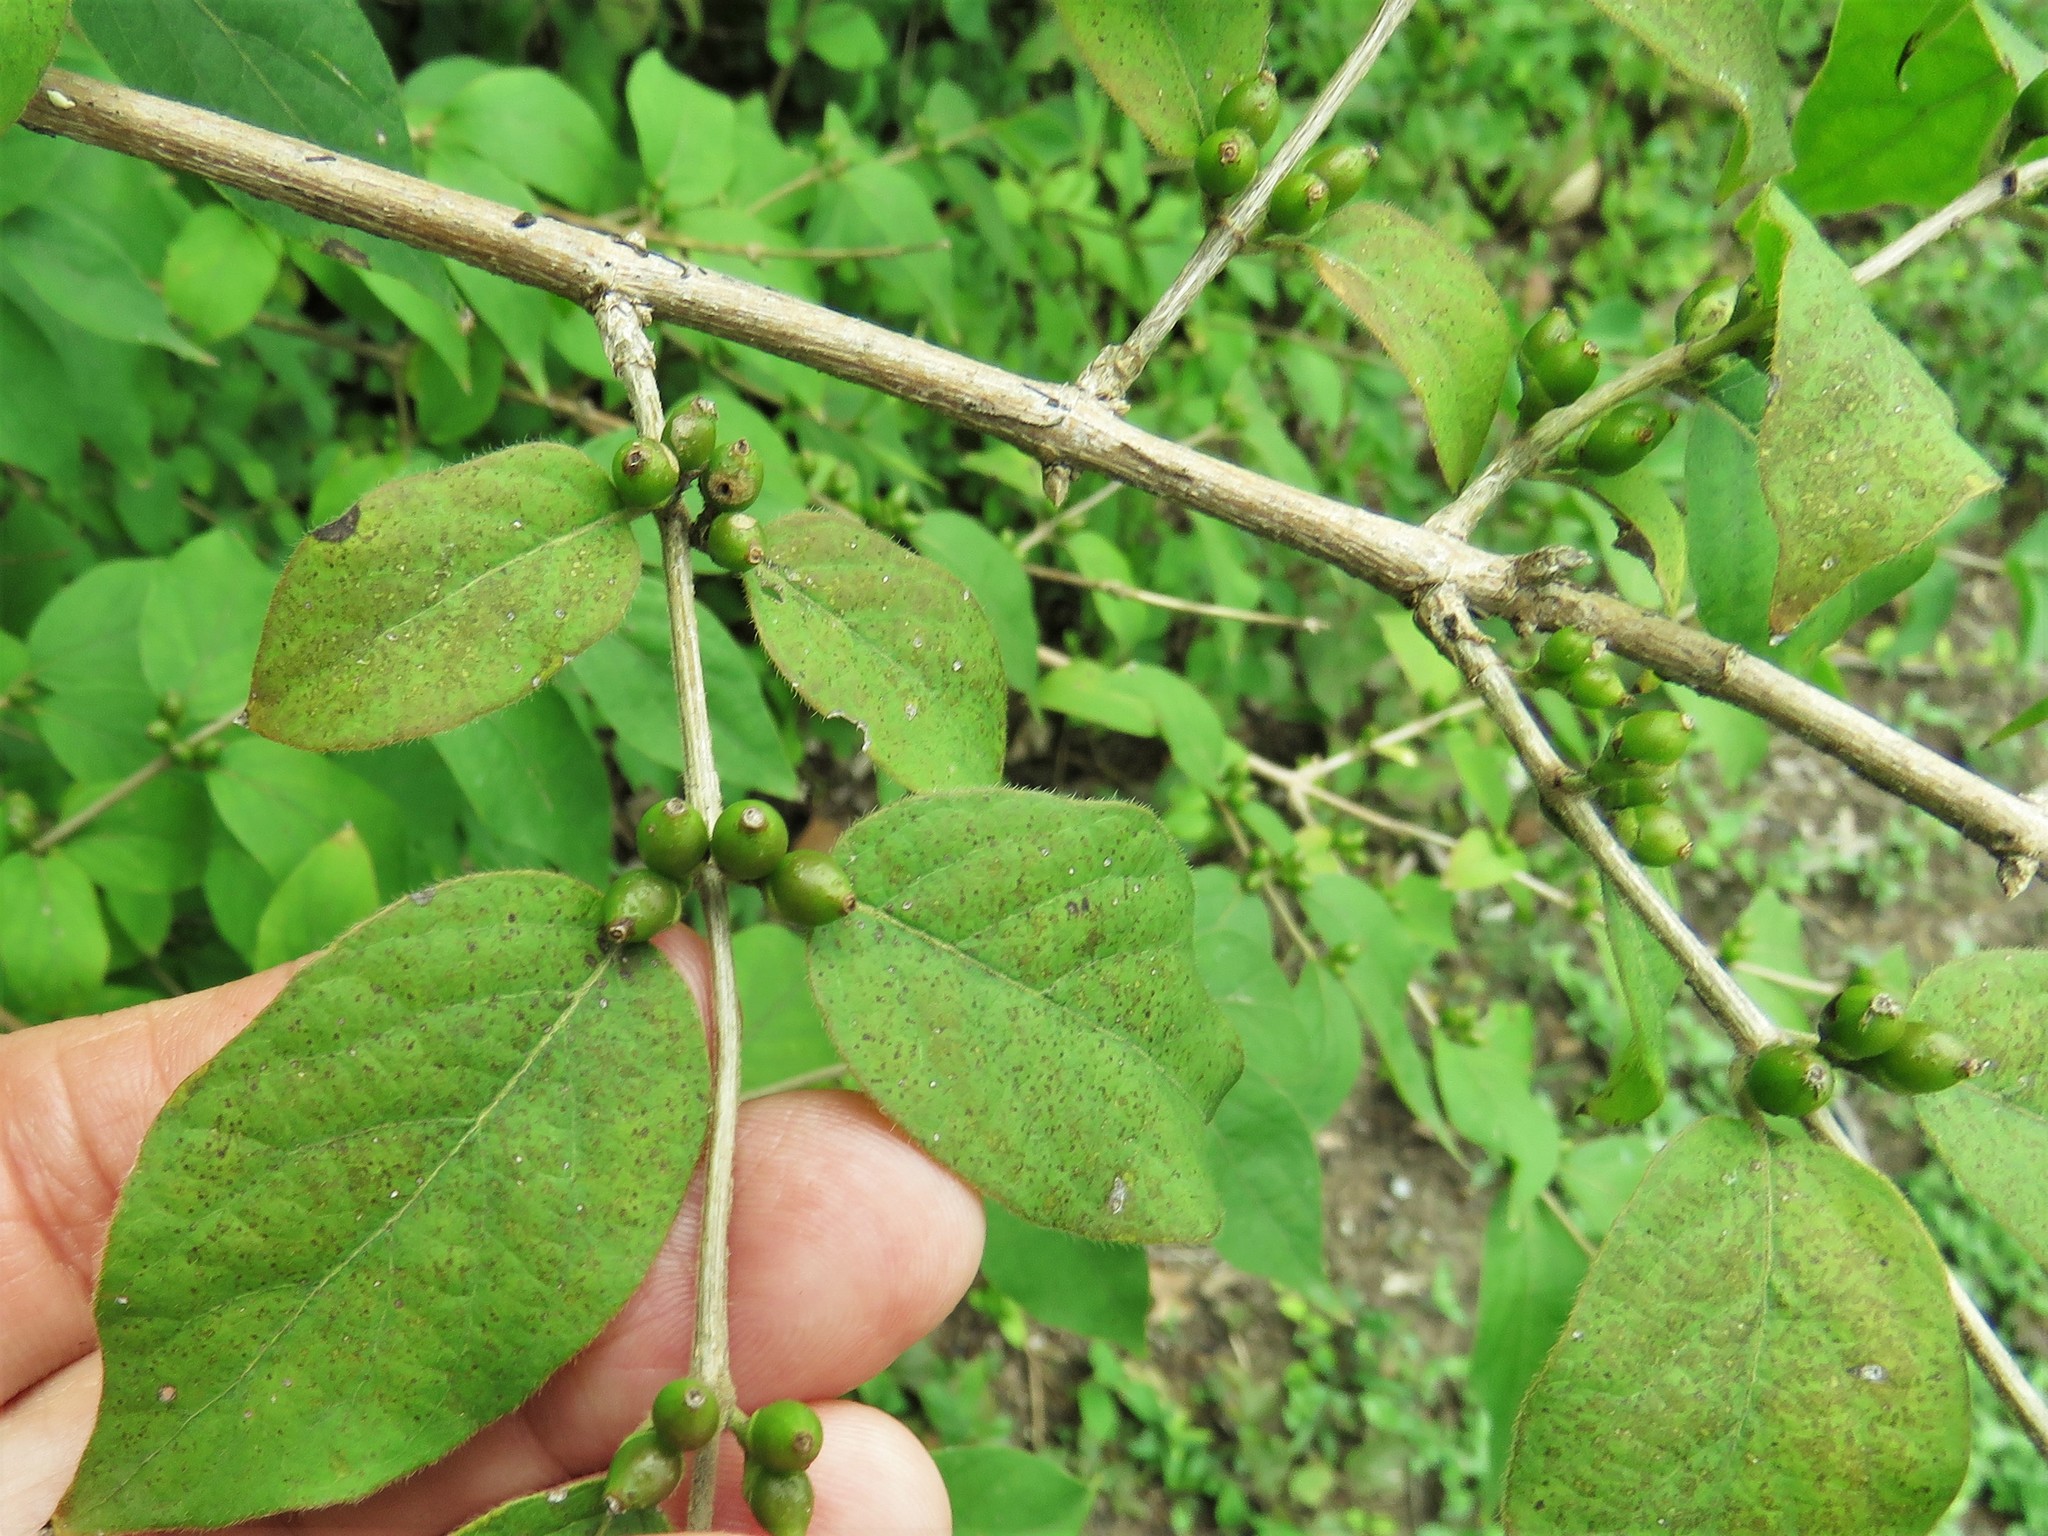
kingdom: Plantae
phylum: Tracheophyta
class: Magnoliopsida
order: Dipsacales
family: Caprifoliaceae
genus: Lonicera
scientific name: Lonicera maackii
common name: Amur honeysuckle
